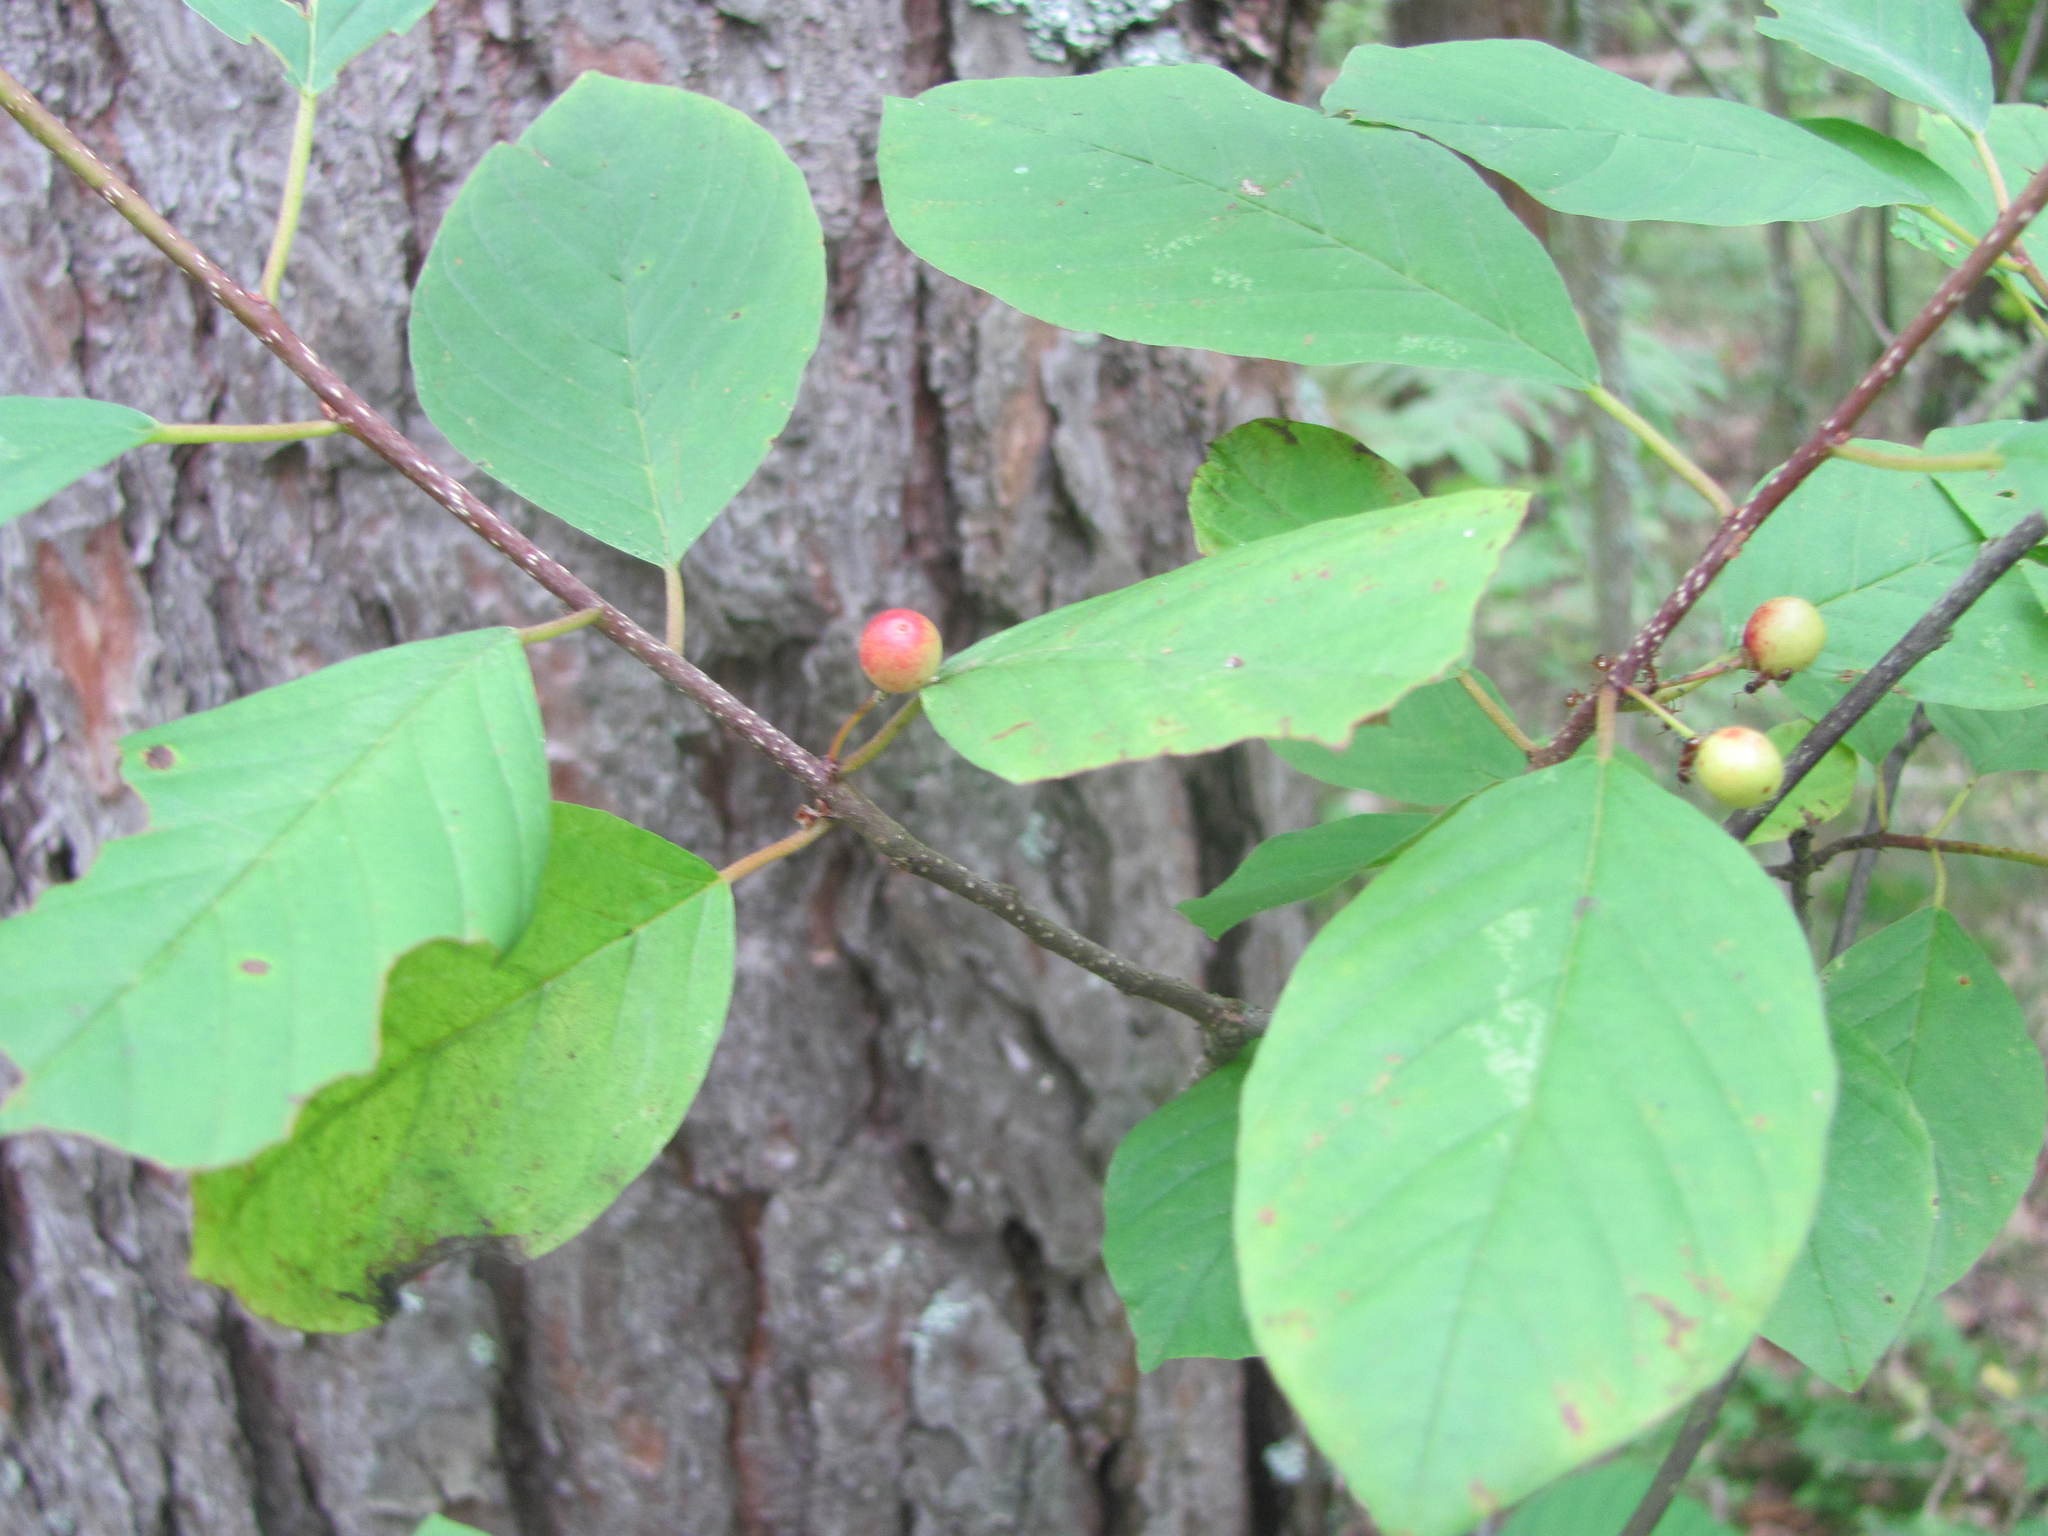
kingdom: Plantae
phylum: Tracheophyta
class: Magnoliopsida
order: Rosales
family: Rhamnaceae
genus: Frangula
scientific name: Frangula alnus
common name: Alder buckthorn
